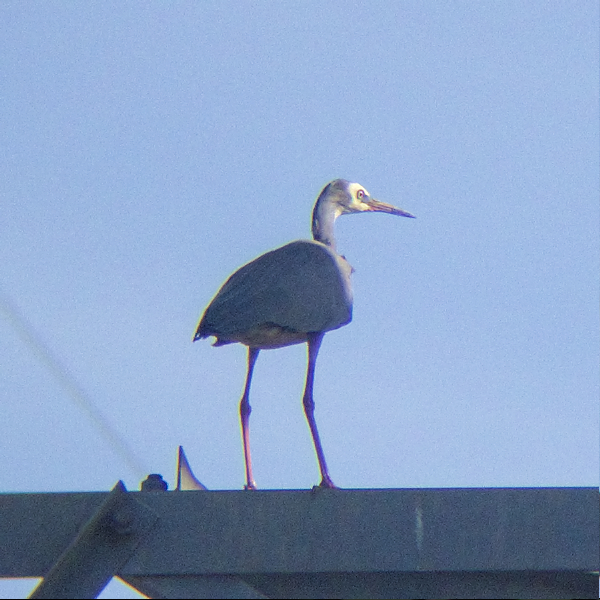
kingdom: Animalia
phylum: Chordata
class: Aves
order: Pelecaniformes
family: Ardeidae
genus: Egretta
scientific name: Egretta novaehollandiae
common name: White-faced heron
